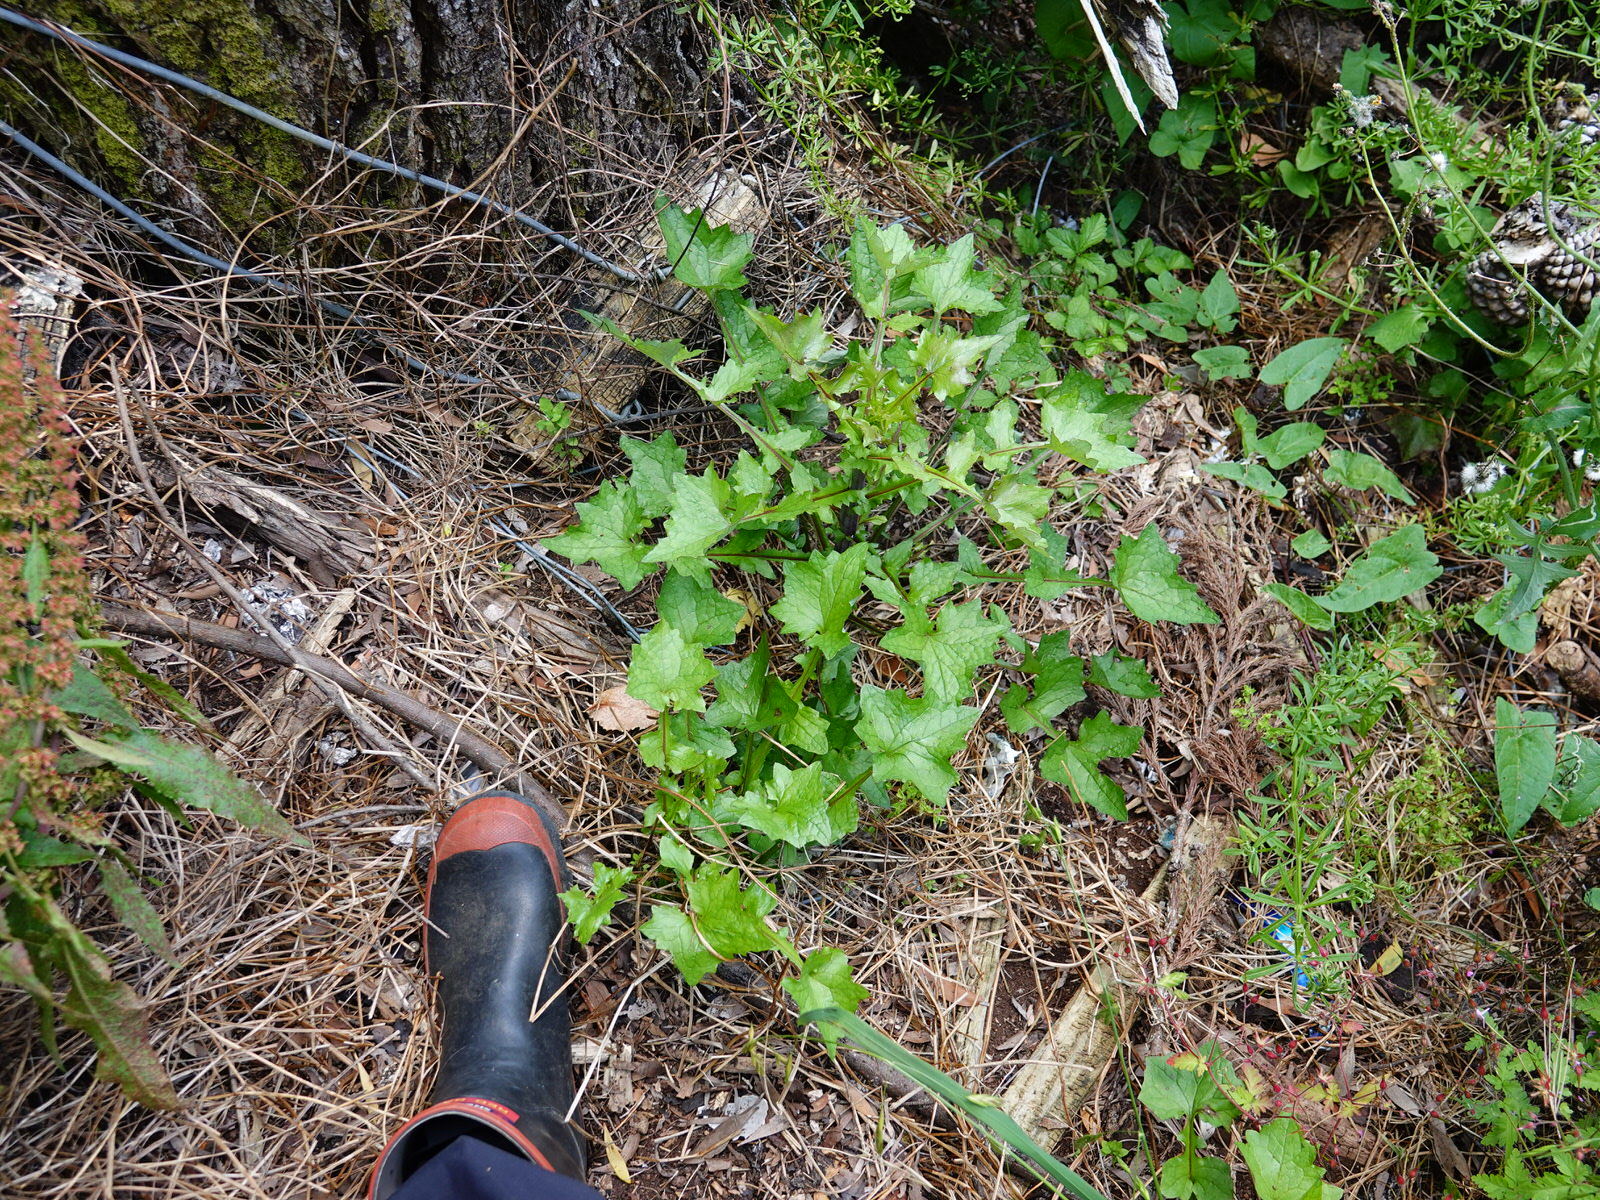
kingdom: Plantae
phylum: Tracheophyta
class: Magnoliopsida
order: Asterales
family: Asteraceae
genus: Mycelis
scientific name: Mycelis muralis
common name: Wall lettuce
